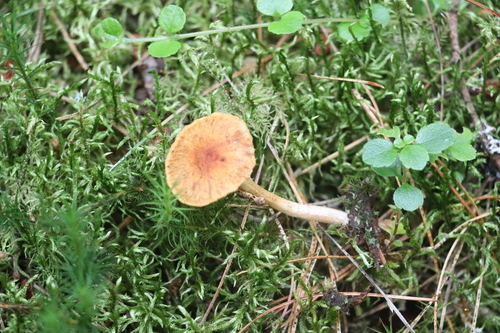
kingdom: Fungi
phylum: Basidiomycota
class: Agaricomycetes
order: Agaricales
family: Hymenogastraceae
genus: Gymnopilus
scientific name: Gymnopilus penetrans
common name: Common rustgill
